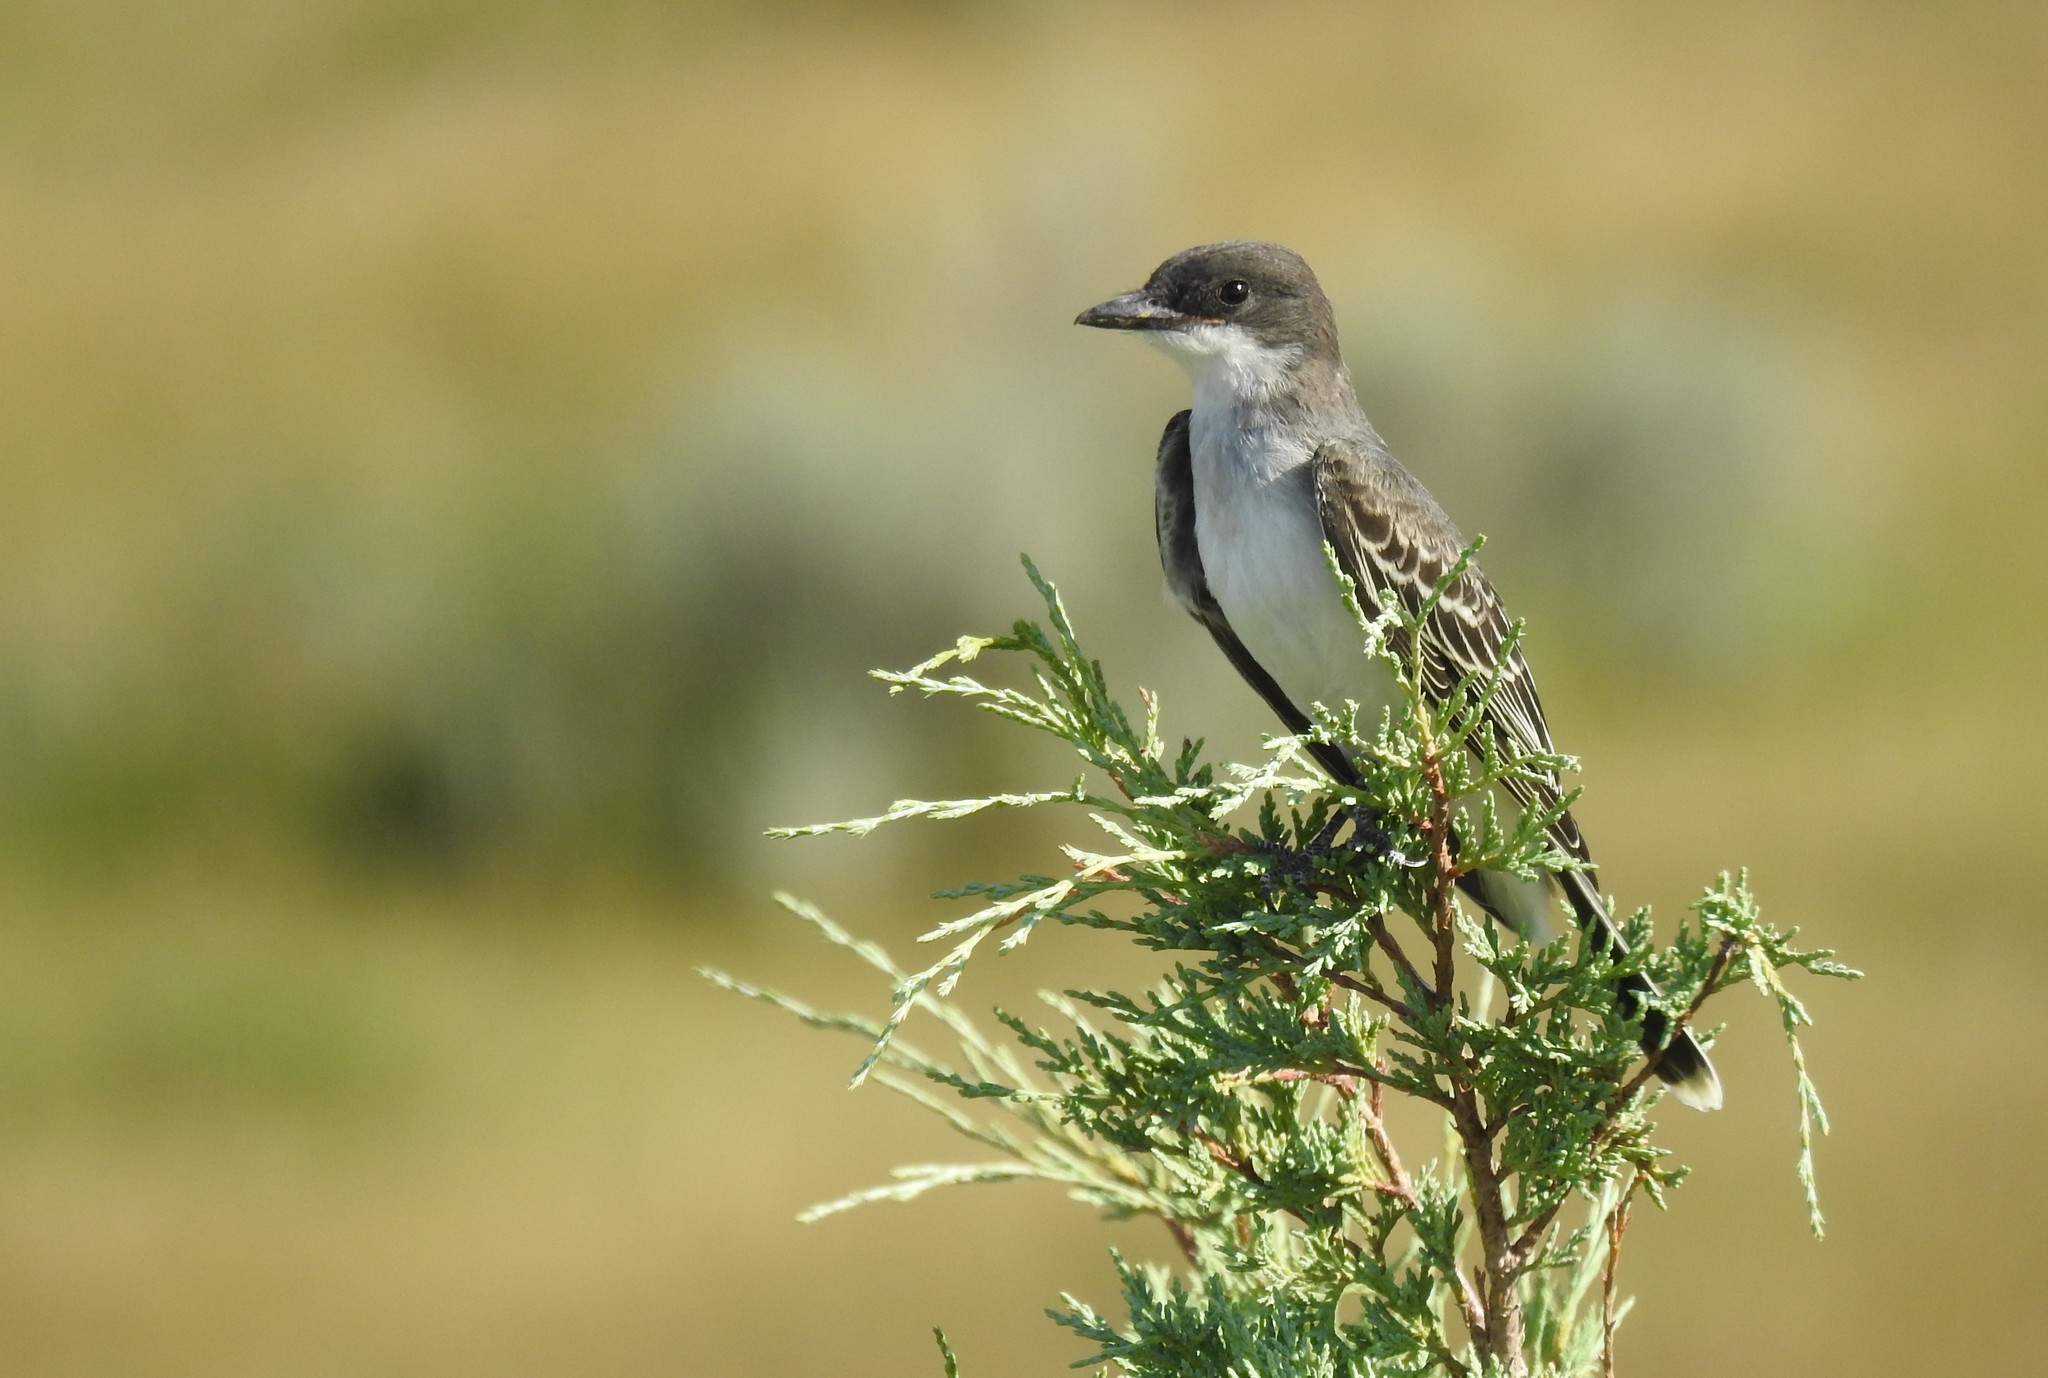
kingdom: Animalia
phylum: Chordata
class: Aves
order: Passeriformes
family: Tyrannidae
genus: Tyrannus
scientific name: Tyrannus tyrannus
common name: Eastern kingbird
